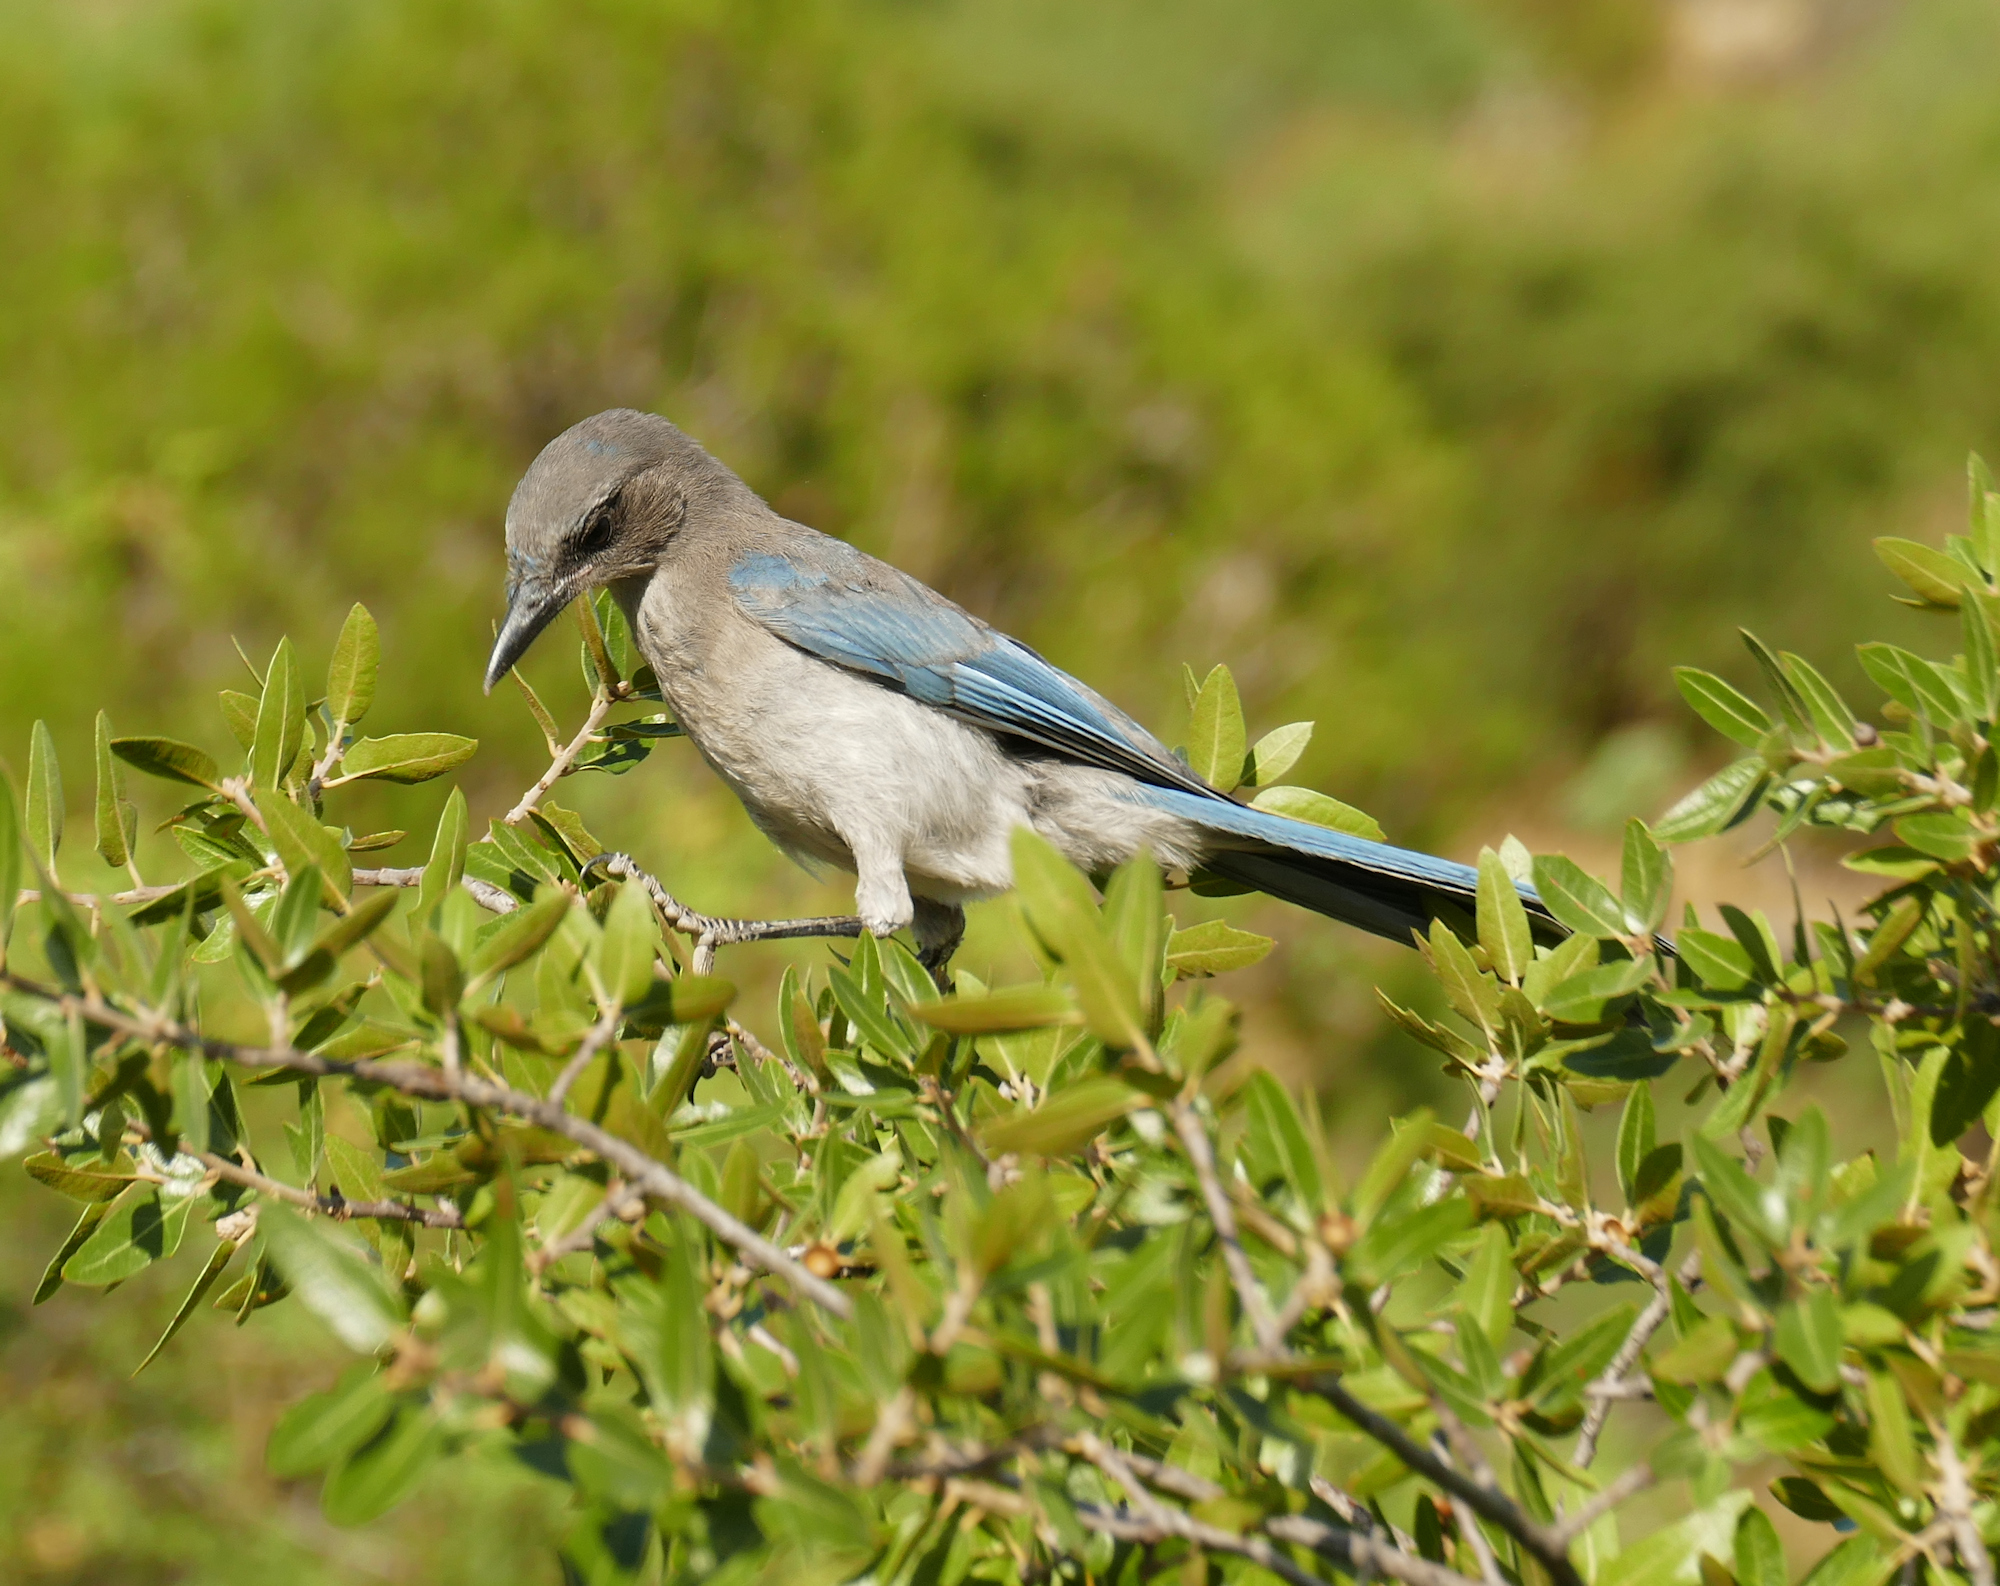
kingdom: Animalia
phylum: Chordata
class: Aves
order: Passeriformes
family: Corvidae
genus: Aphelocoma
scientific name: Aphelocoma woodhouseii
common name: Woodhouse's scrub-jay
